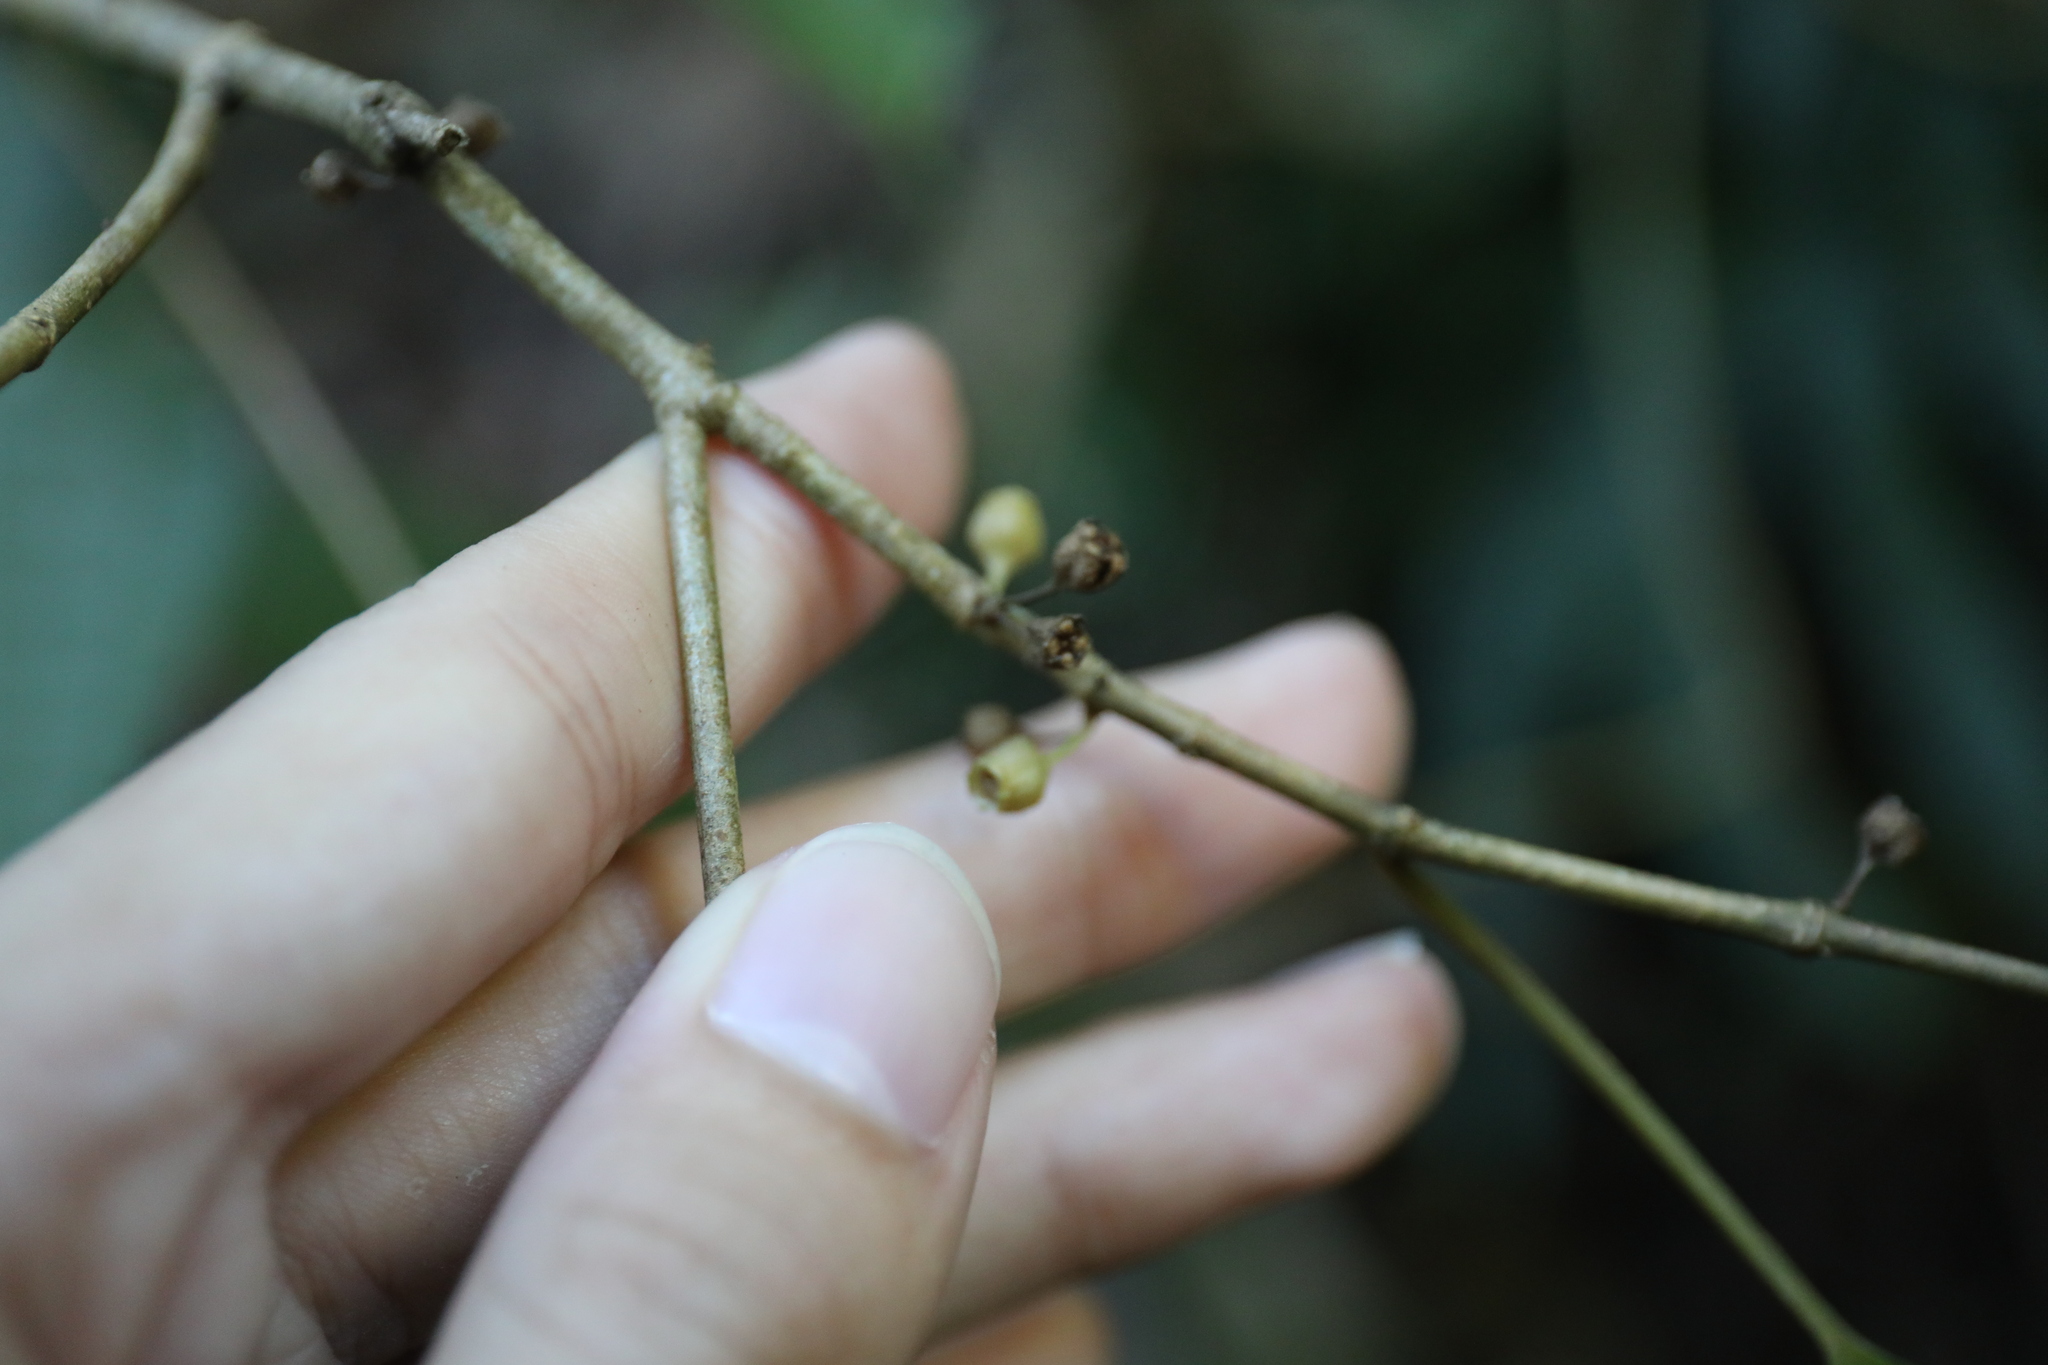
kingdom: Plantae
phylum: Tracheophyta
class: Magnoliopsida
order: Myrtales
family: Melastomataceae
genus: Blastus
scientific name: Blastus cochinchinensis
